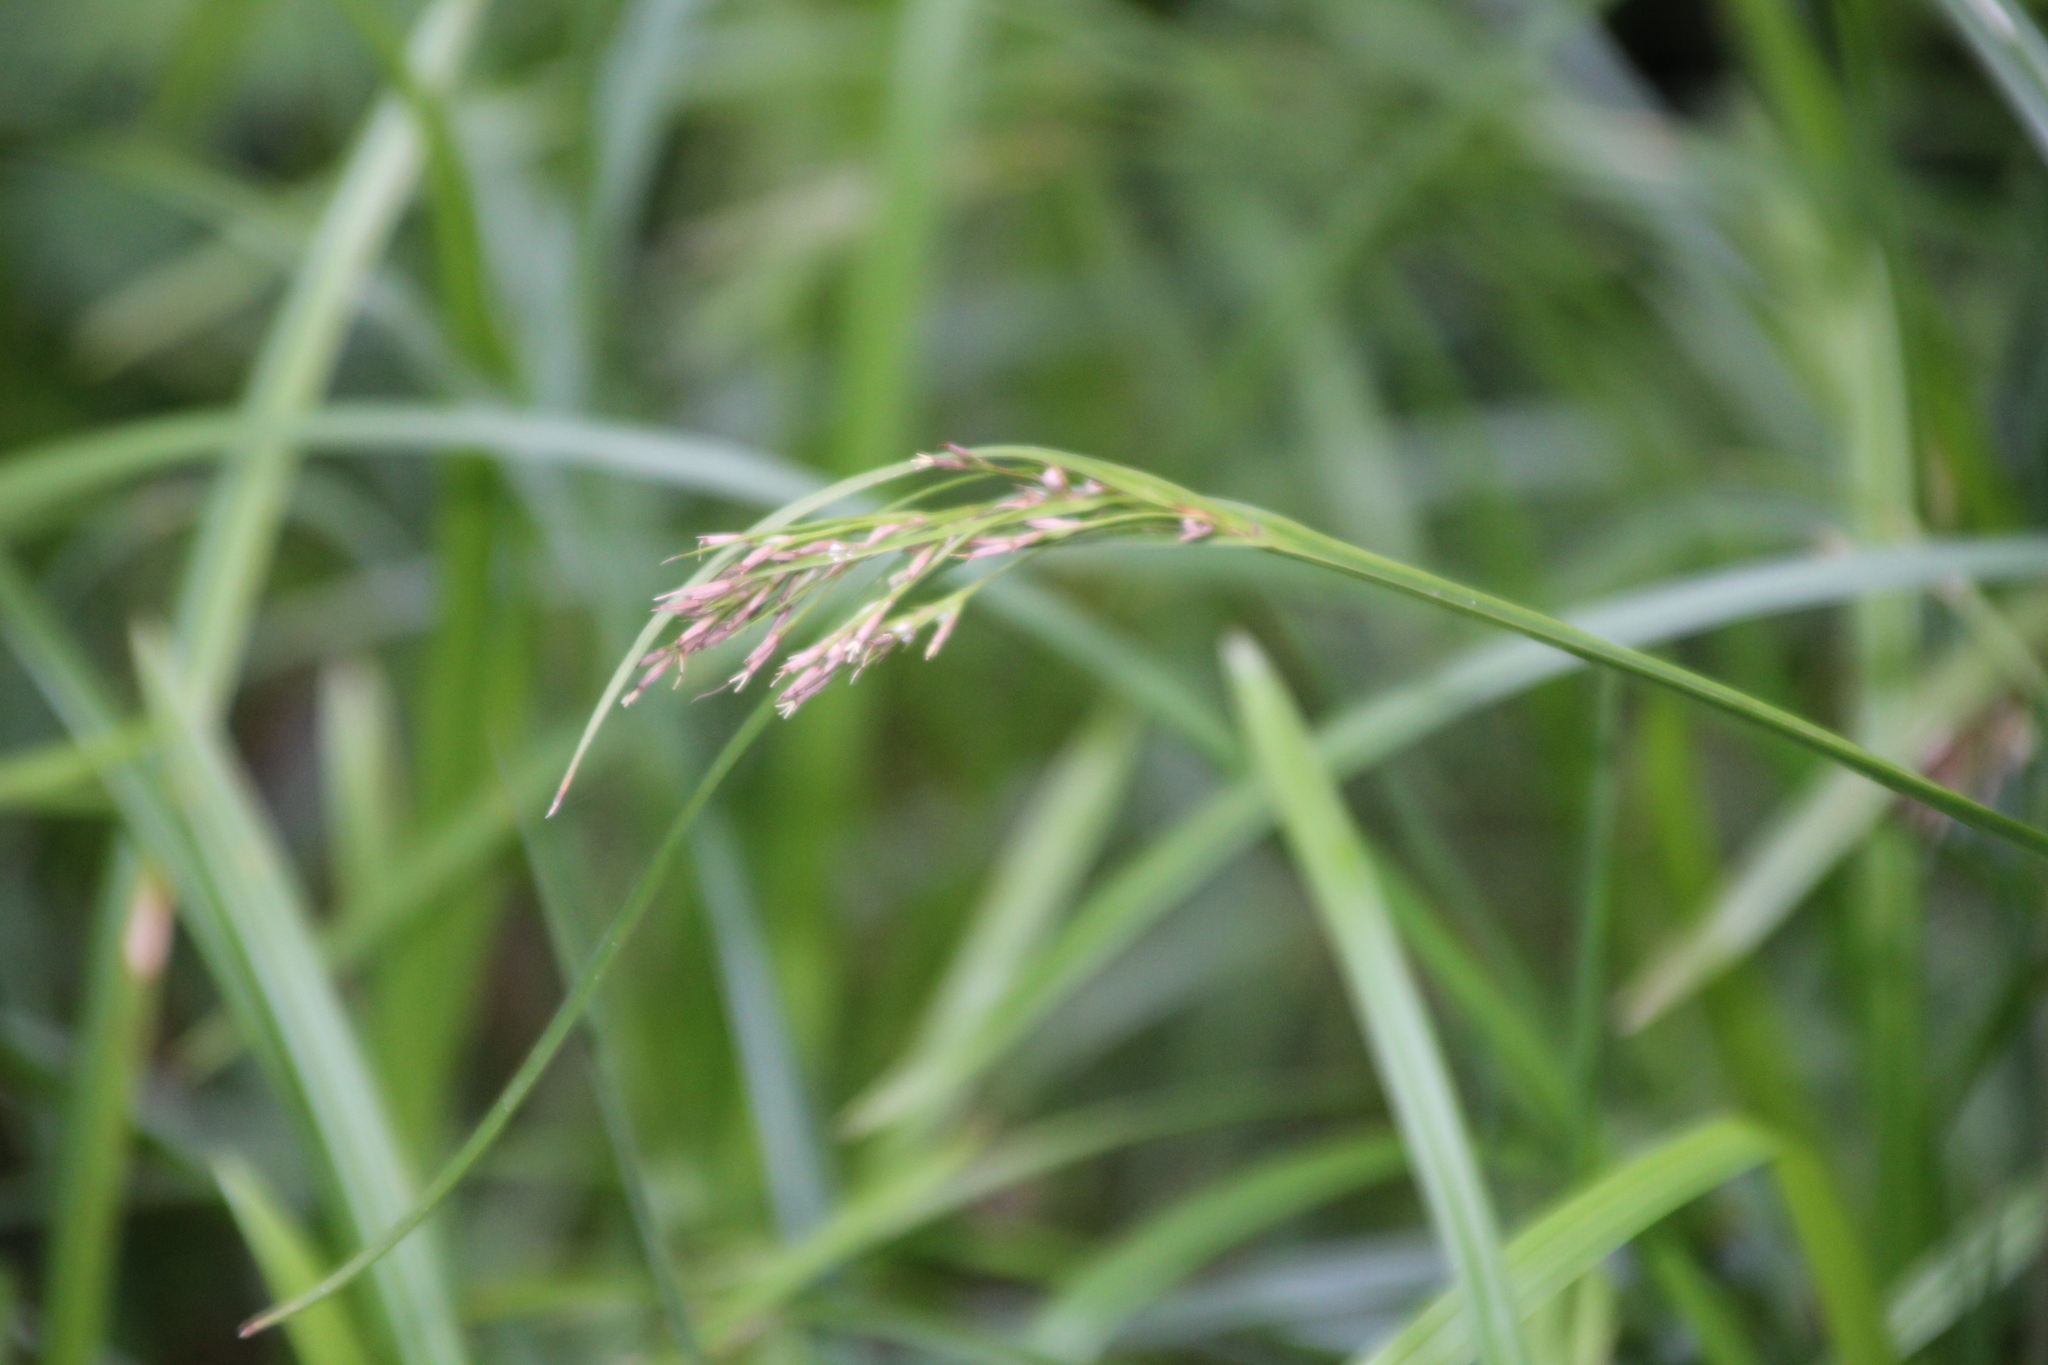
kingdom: Plantae
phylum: Tracheophyta
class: Liliopsida
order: Poales
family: Cyperaceae
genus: Scleria
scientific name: Scleria natalensis
